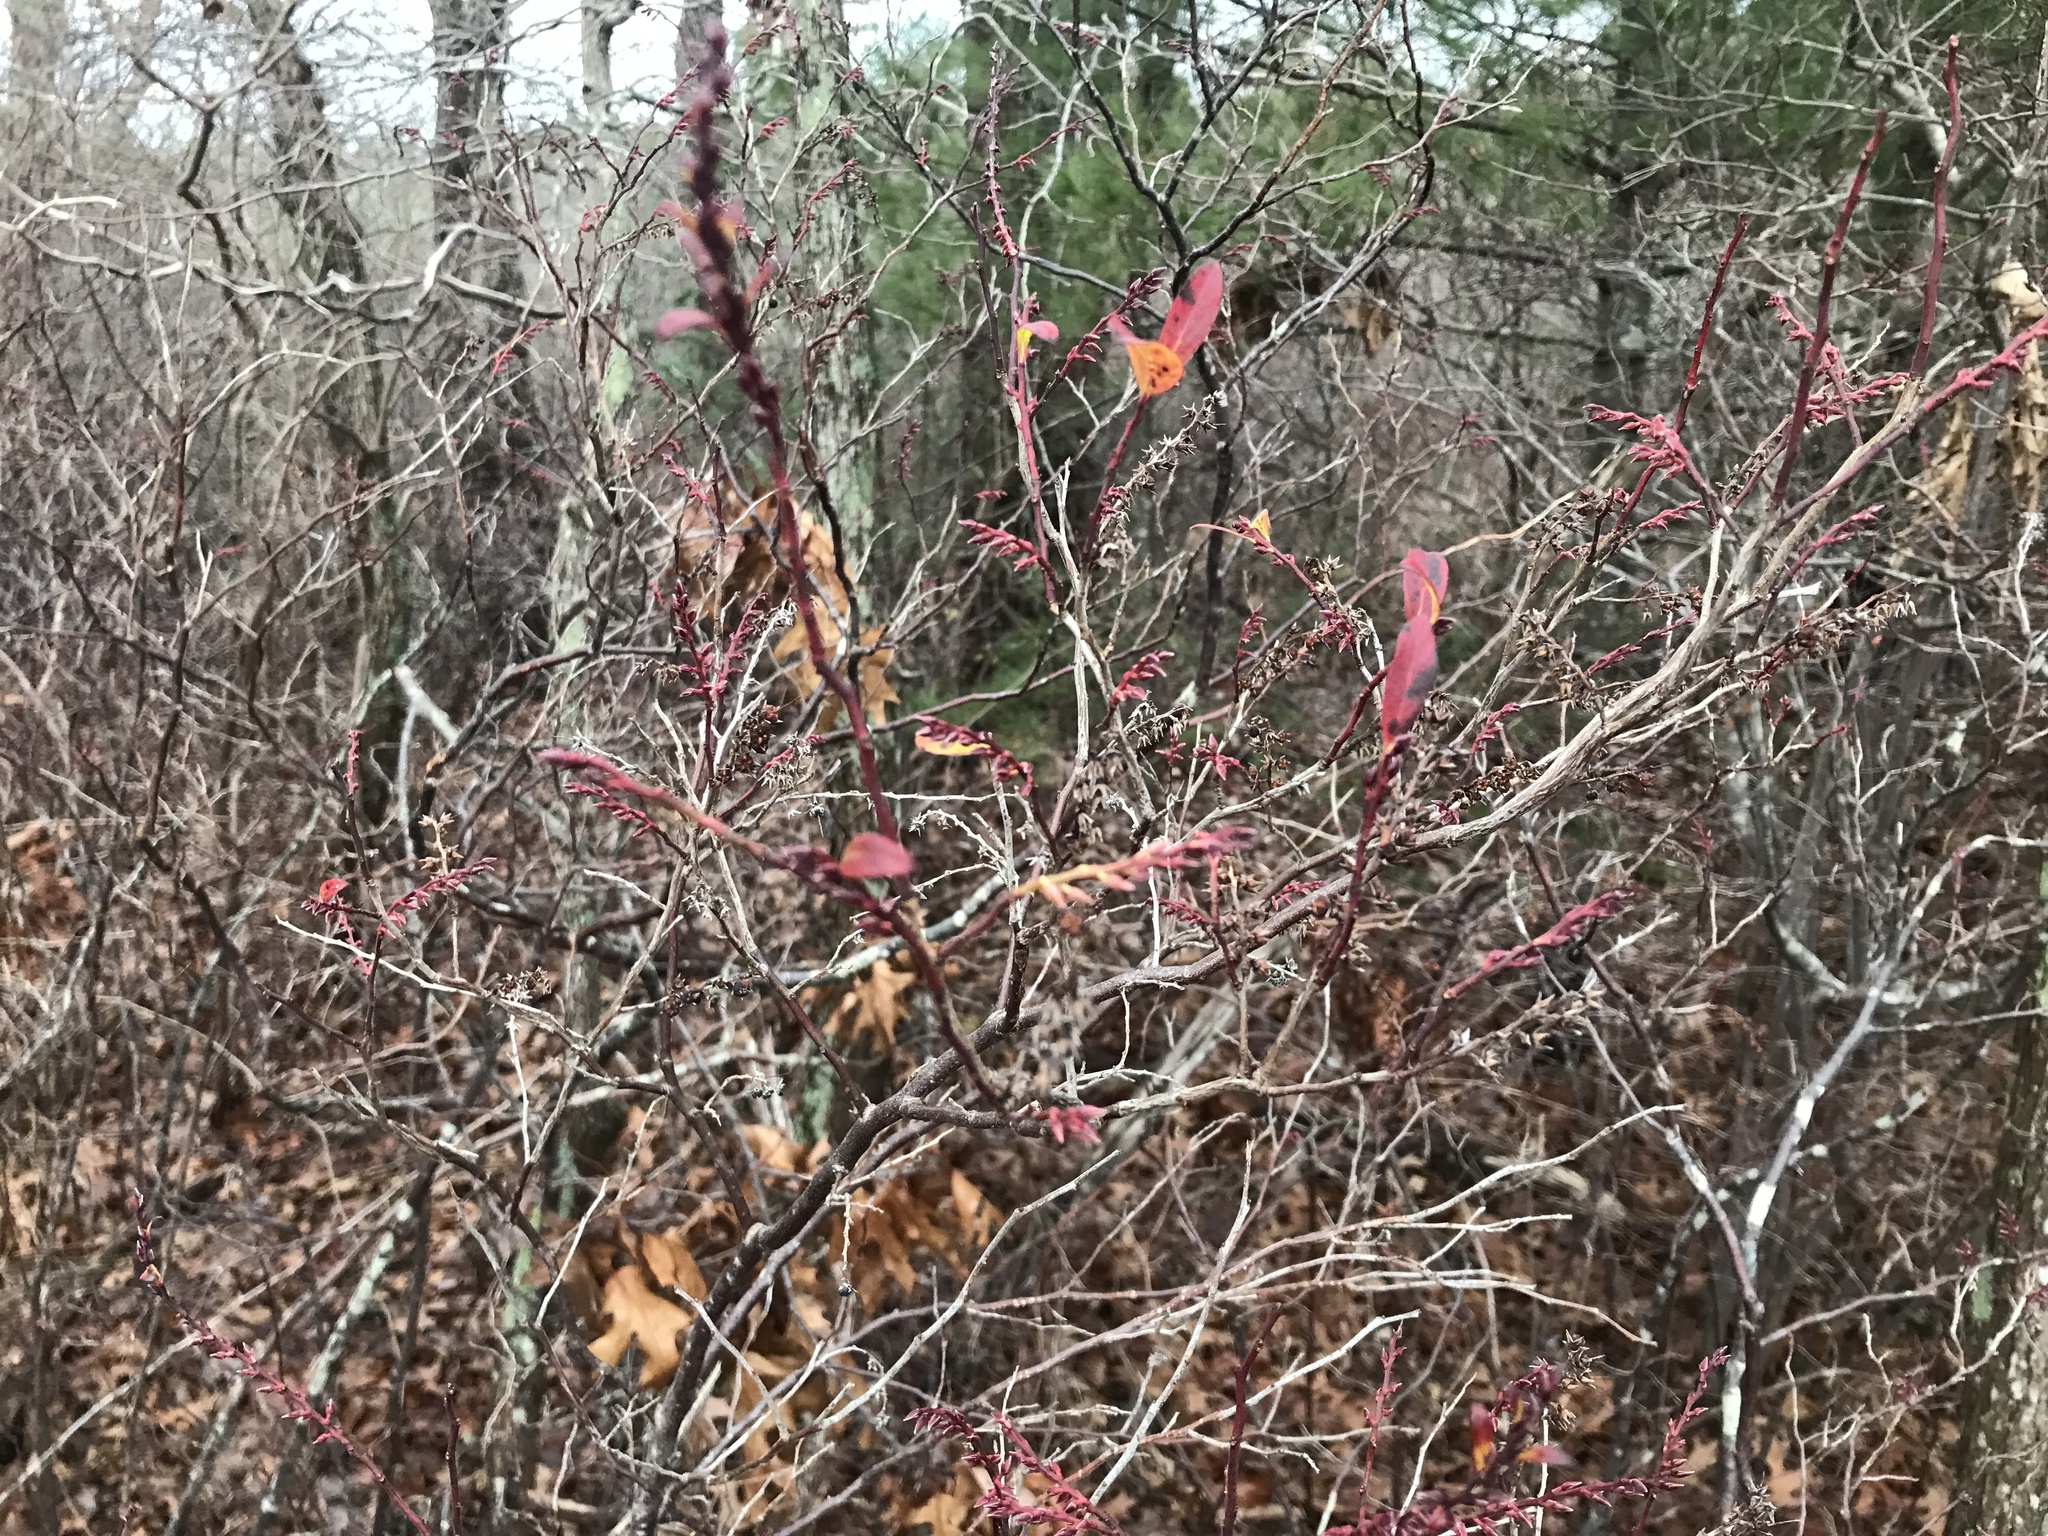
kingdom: Plantae
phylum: Tracheophyta
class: Magnoliopsida
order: Ericales
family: Ericaceae
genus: Eubotrys
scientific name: Eubotrys racemosa
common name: Fetterbush
